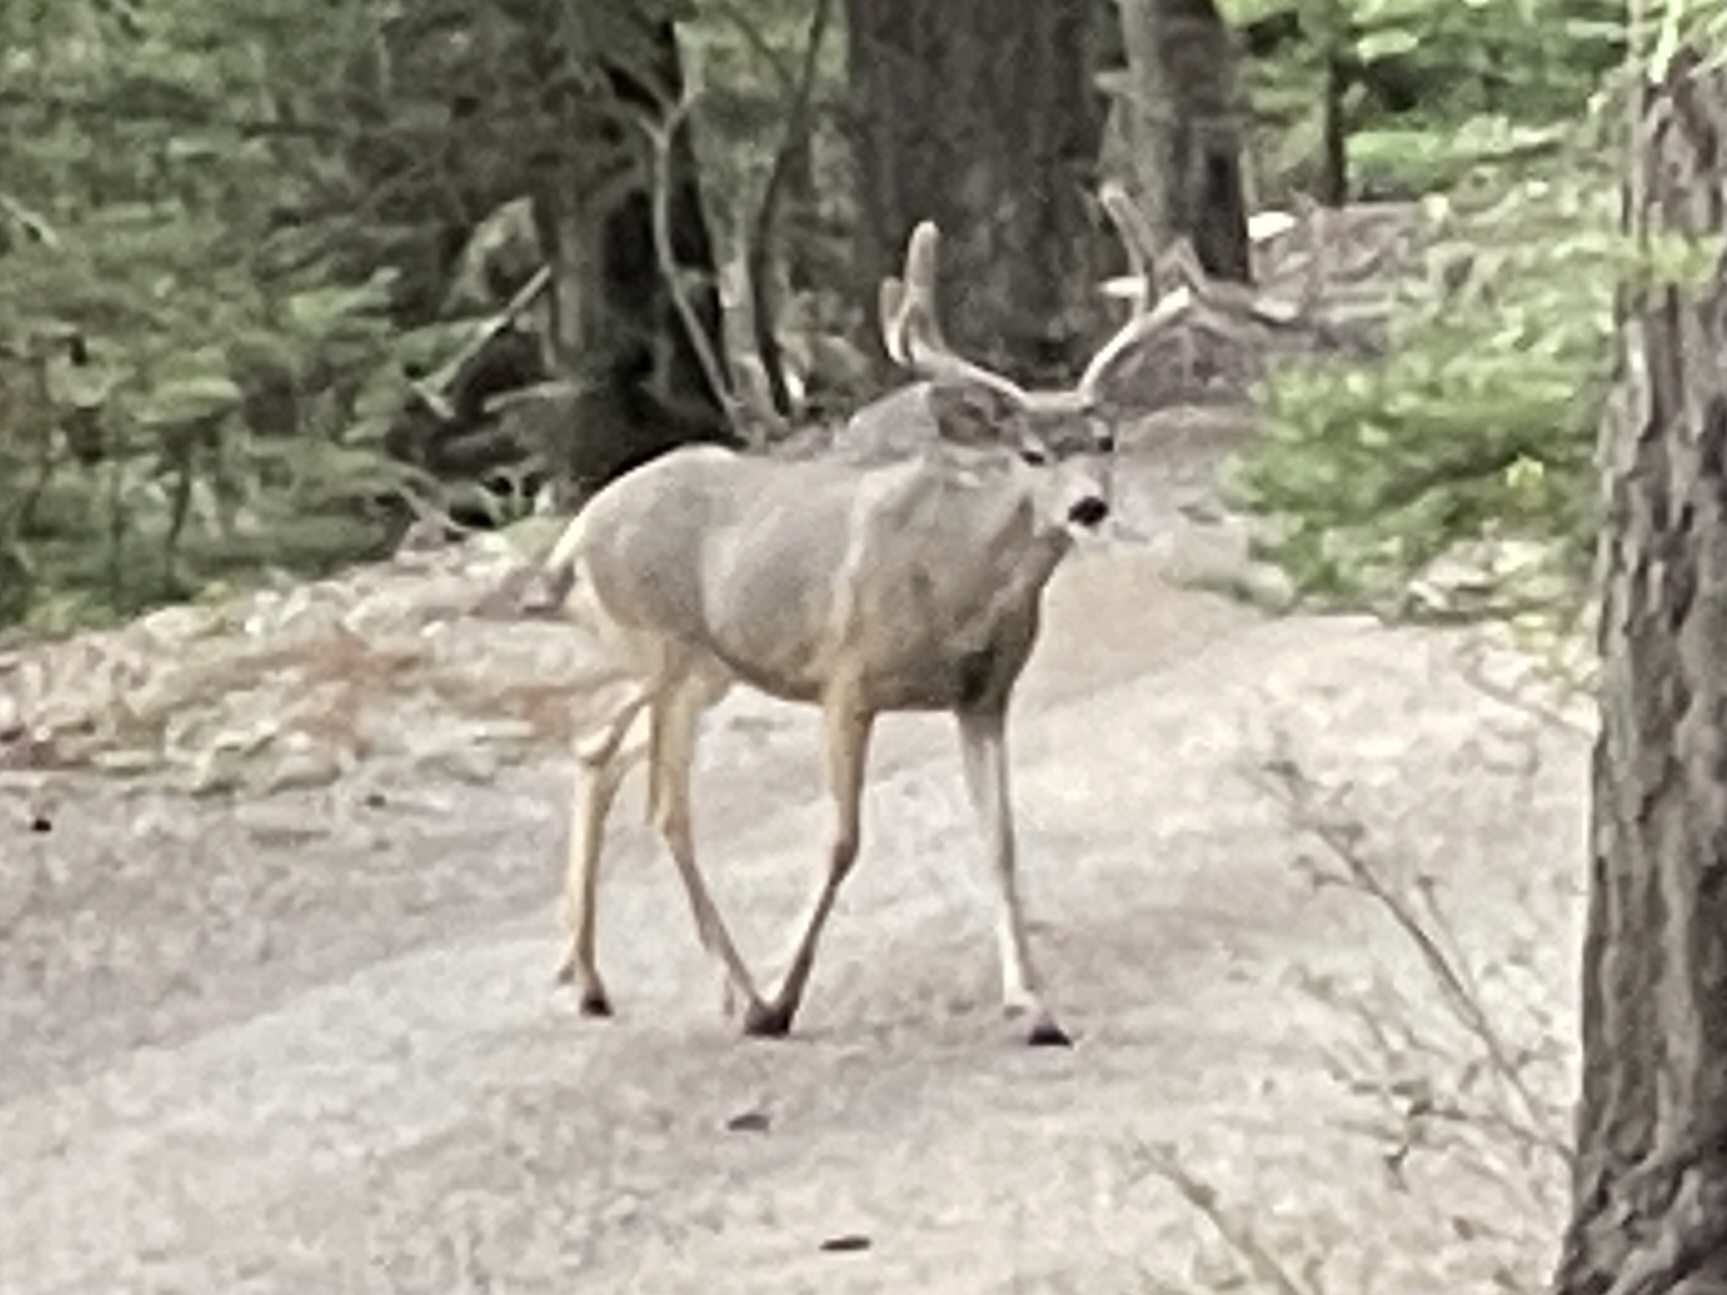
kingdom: Animalia
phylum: Chordata
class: Mammalia
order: Artiodactyla
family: Cervidae
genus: Odocoileus
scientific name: Odocoileus hemionus
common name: Mule deer
